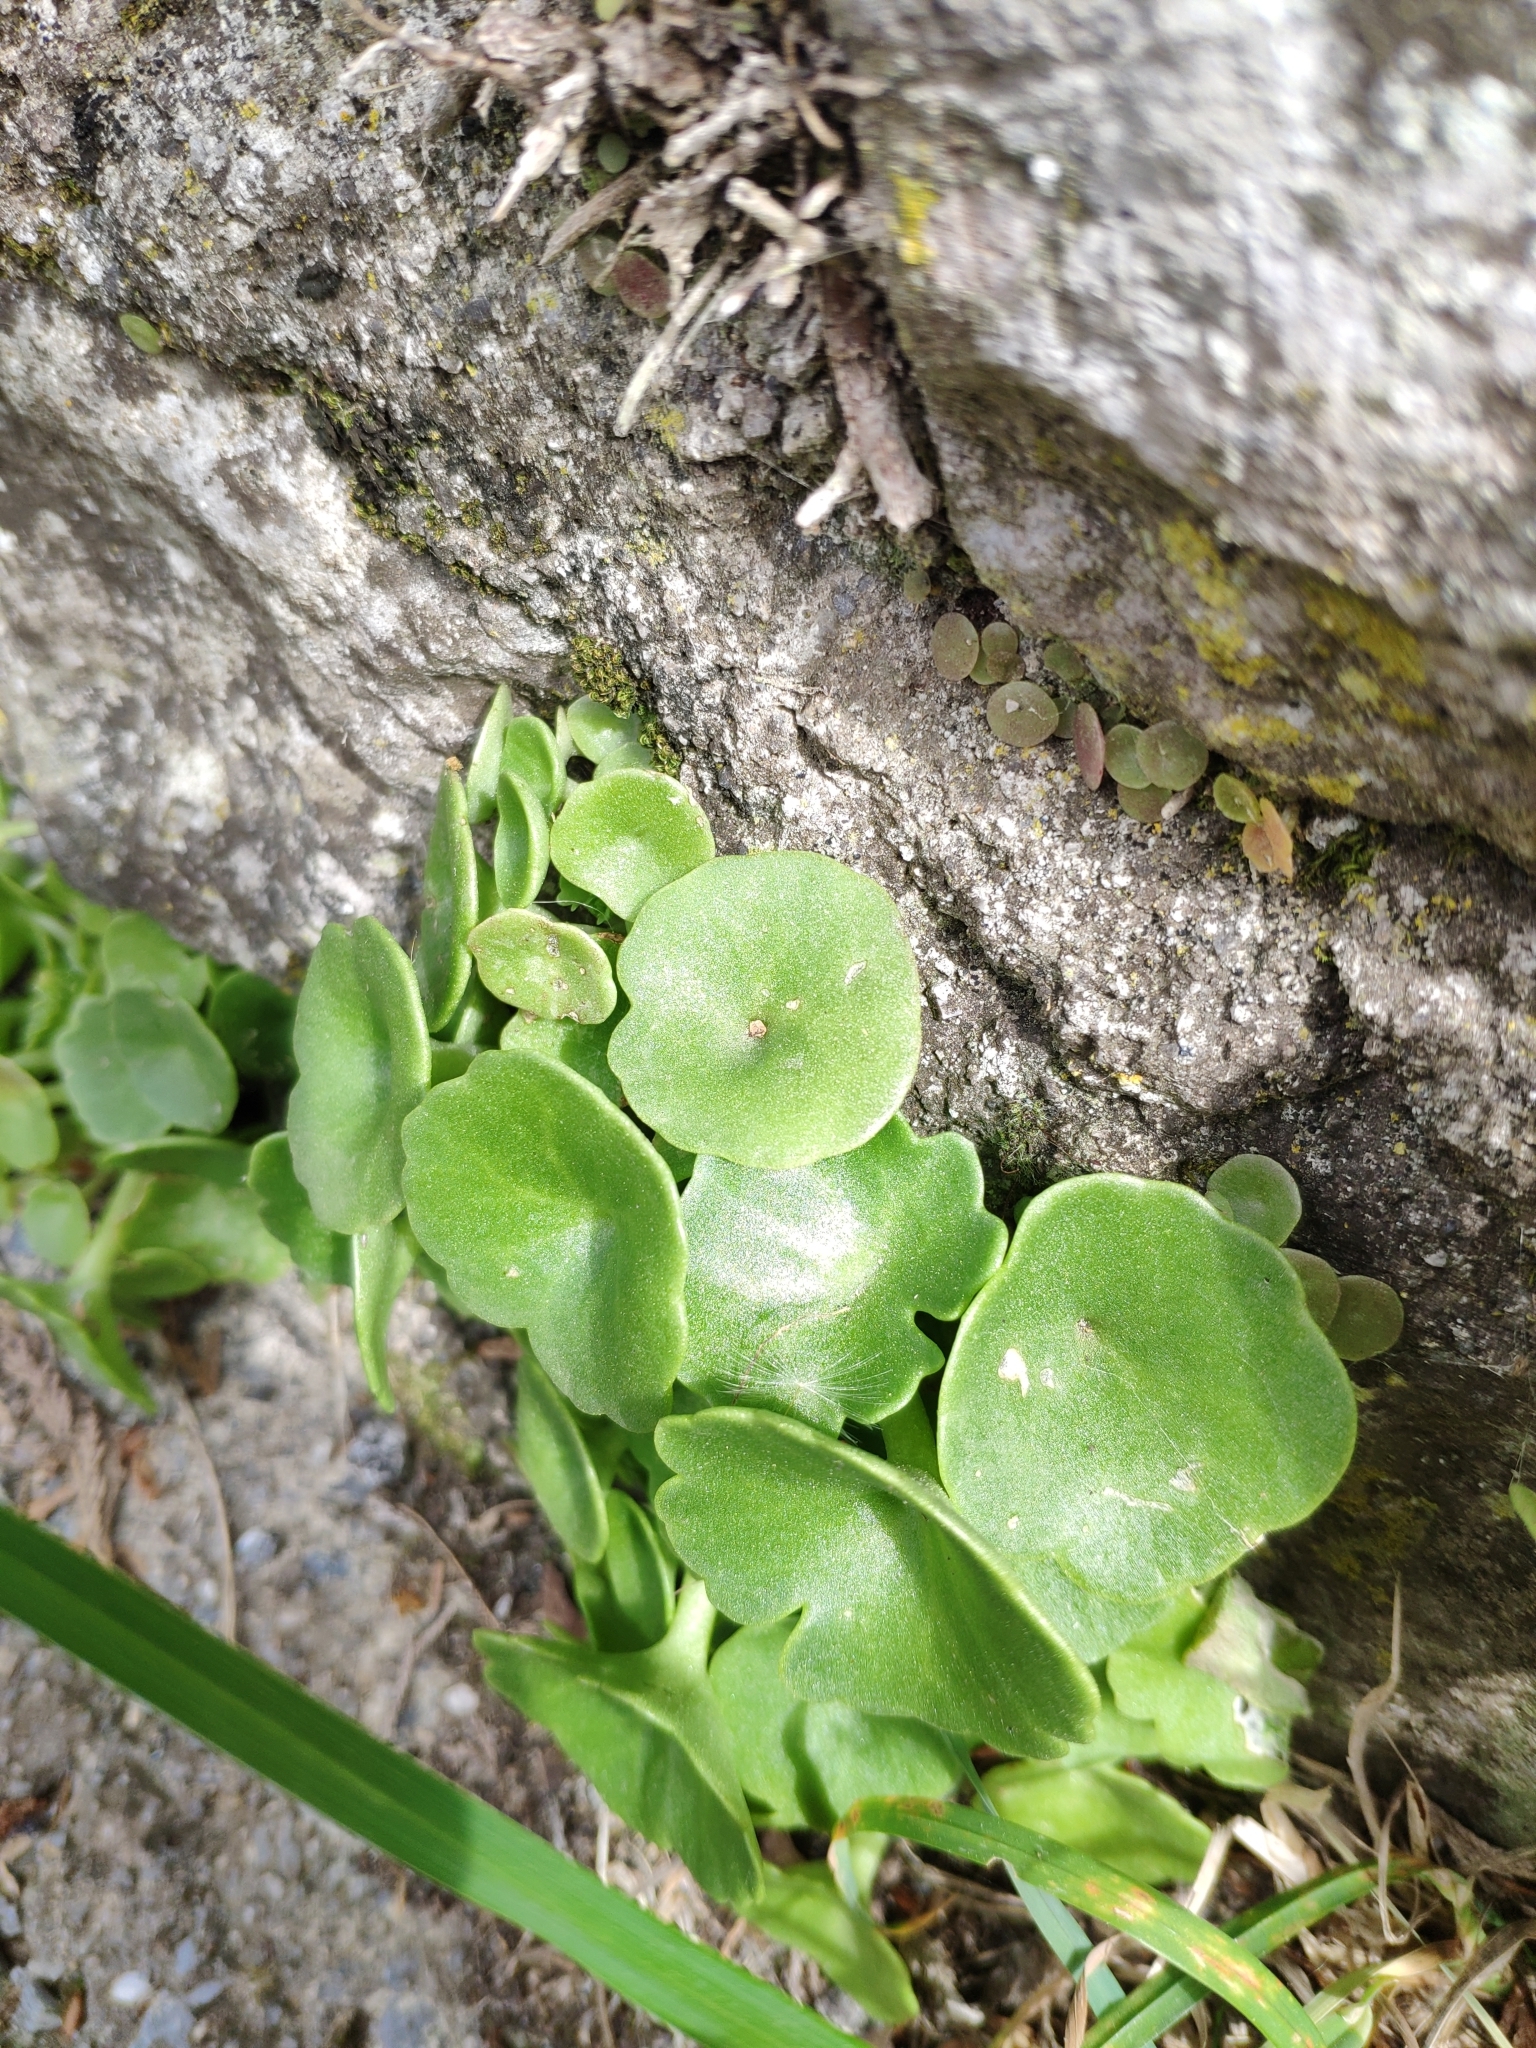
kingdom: Plantae
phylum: Tracheophyta
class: Magnoliopsida
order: Saxifragales
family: Crassulaceae
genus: Umbilicus
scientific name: Umbilicus rupestris
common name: Navelwort
